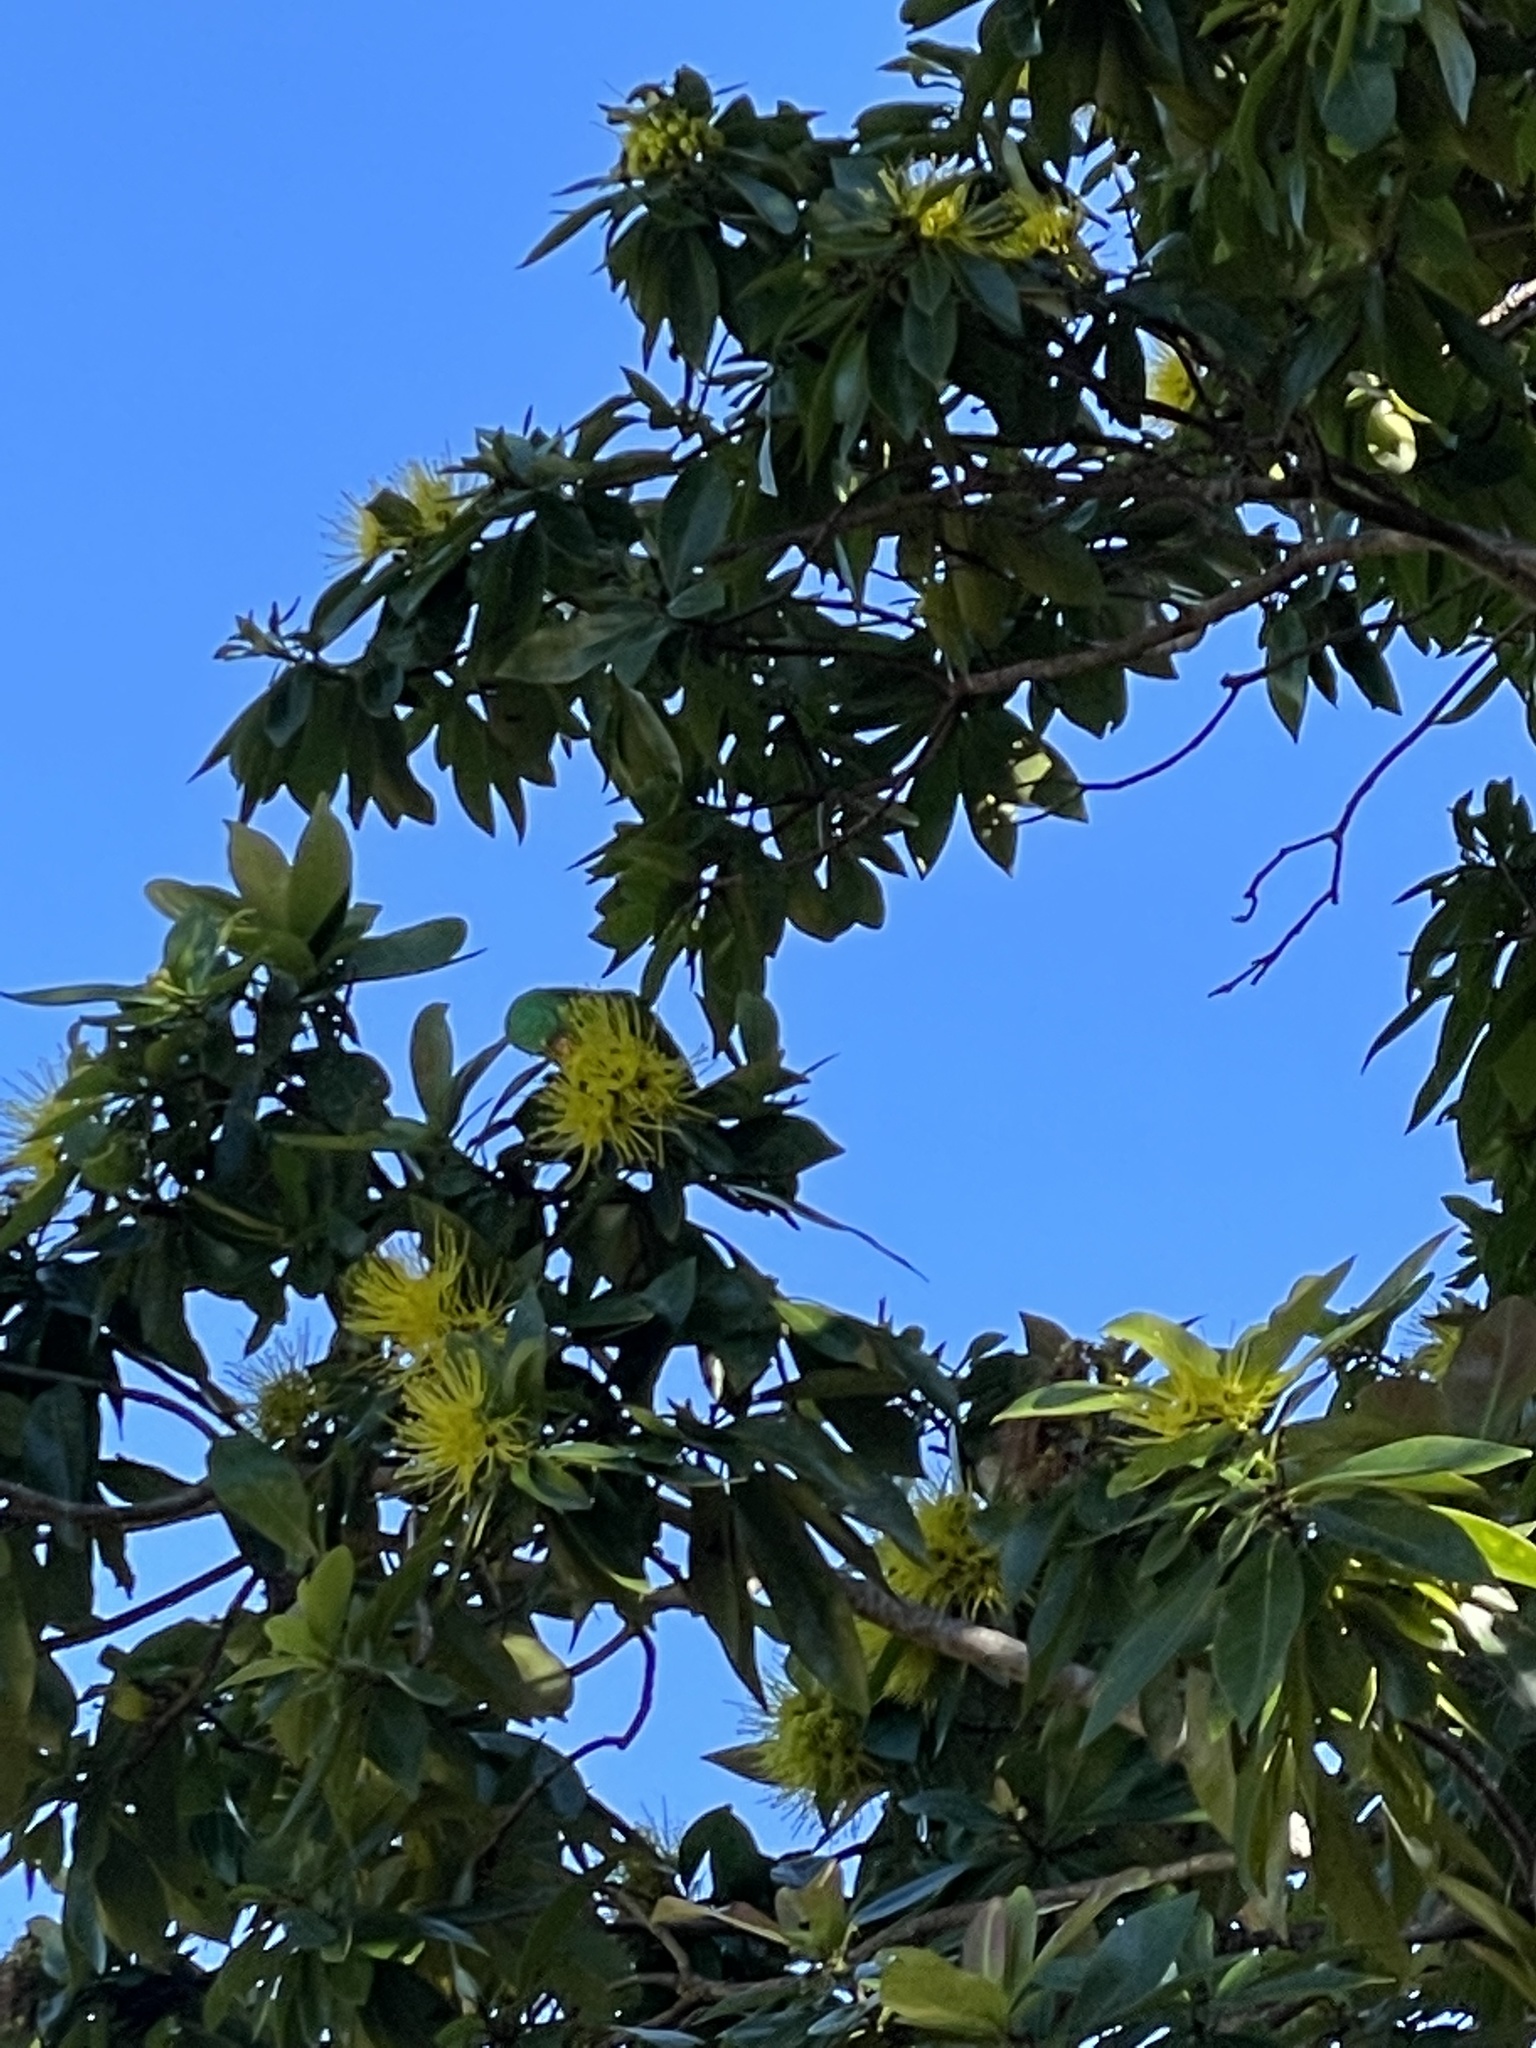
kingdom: Animalia
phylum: Chordata
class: Aves
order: Psittaciformes
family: Psittacidae
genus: Trichoglossus
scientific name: Trichoglossus chlorolepidotus
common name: Scaly-breasted lorikeet
